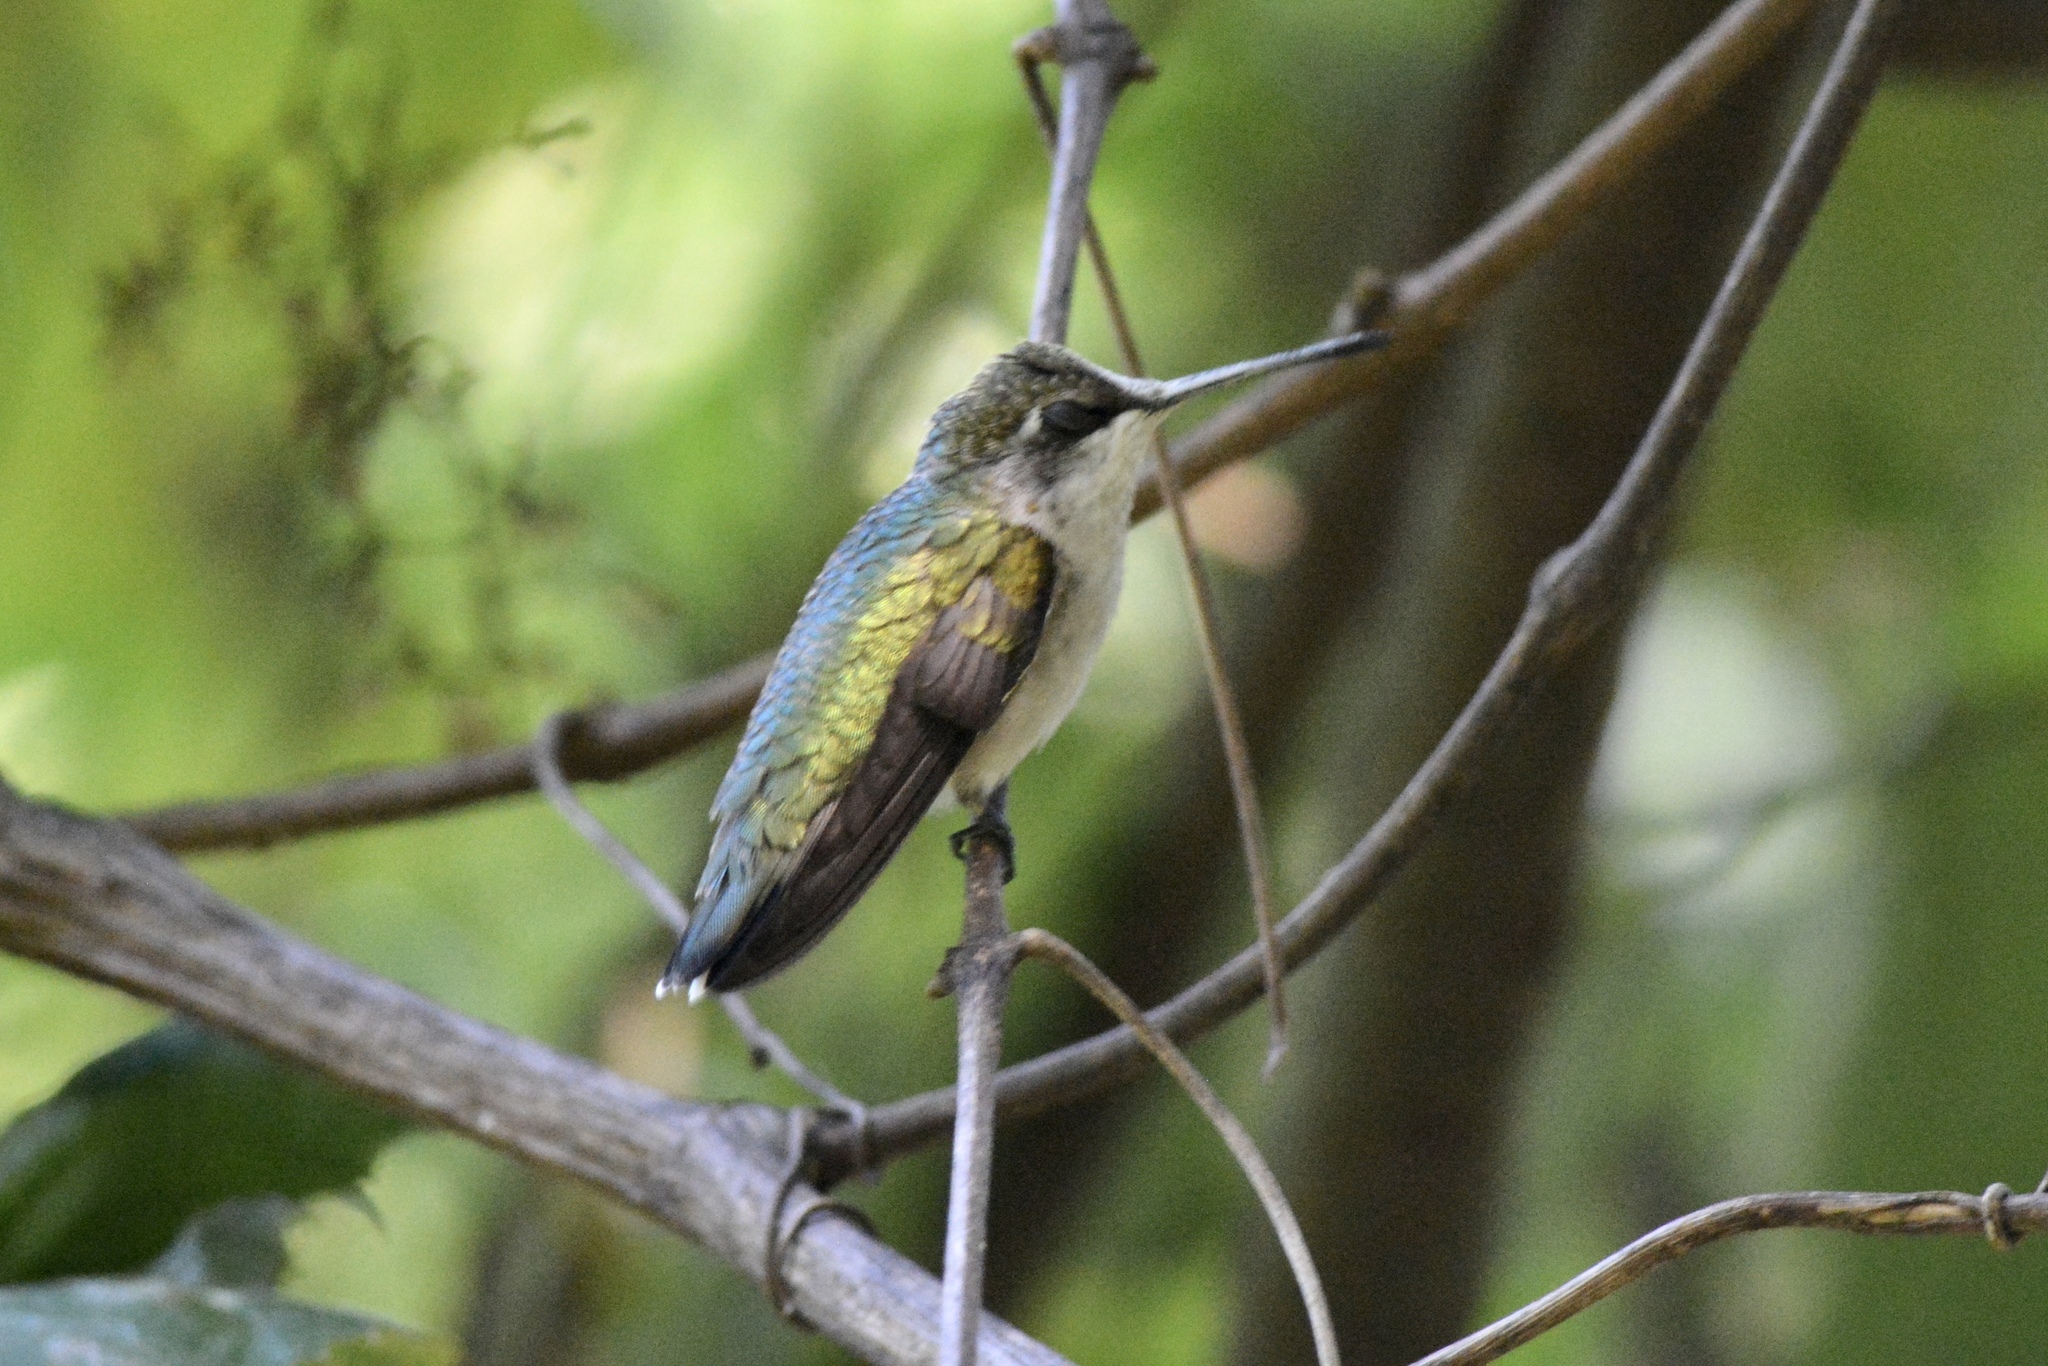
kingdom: Animalia
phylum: Chordata
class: Aves
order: Apodiformes
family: Trochilidae
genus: Archilochus
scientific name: Archilochus colubris
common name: Ruby-throated hummingbird
